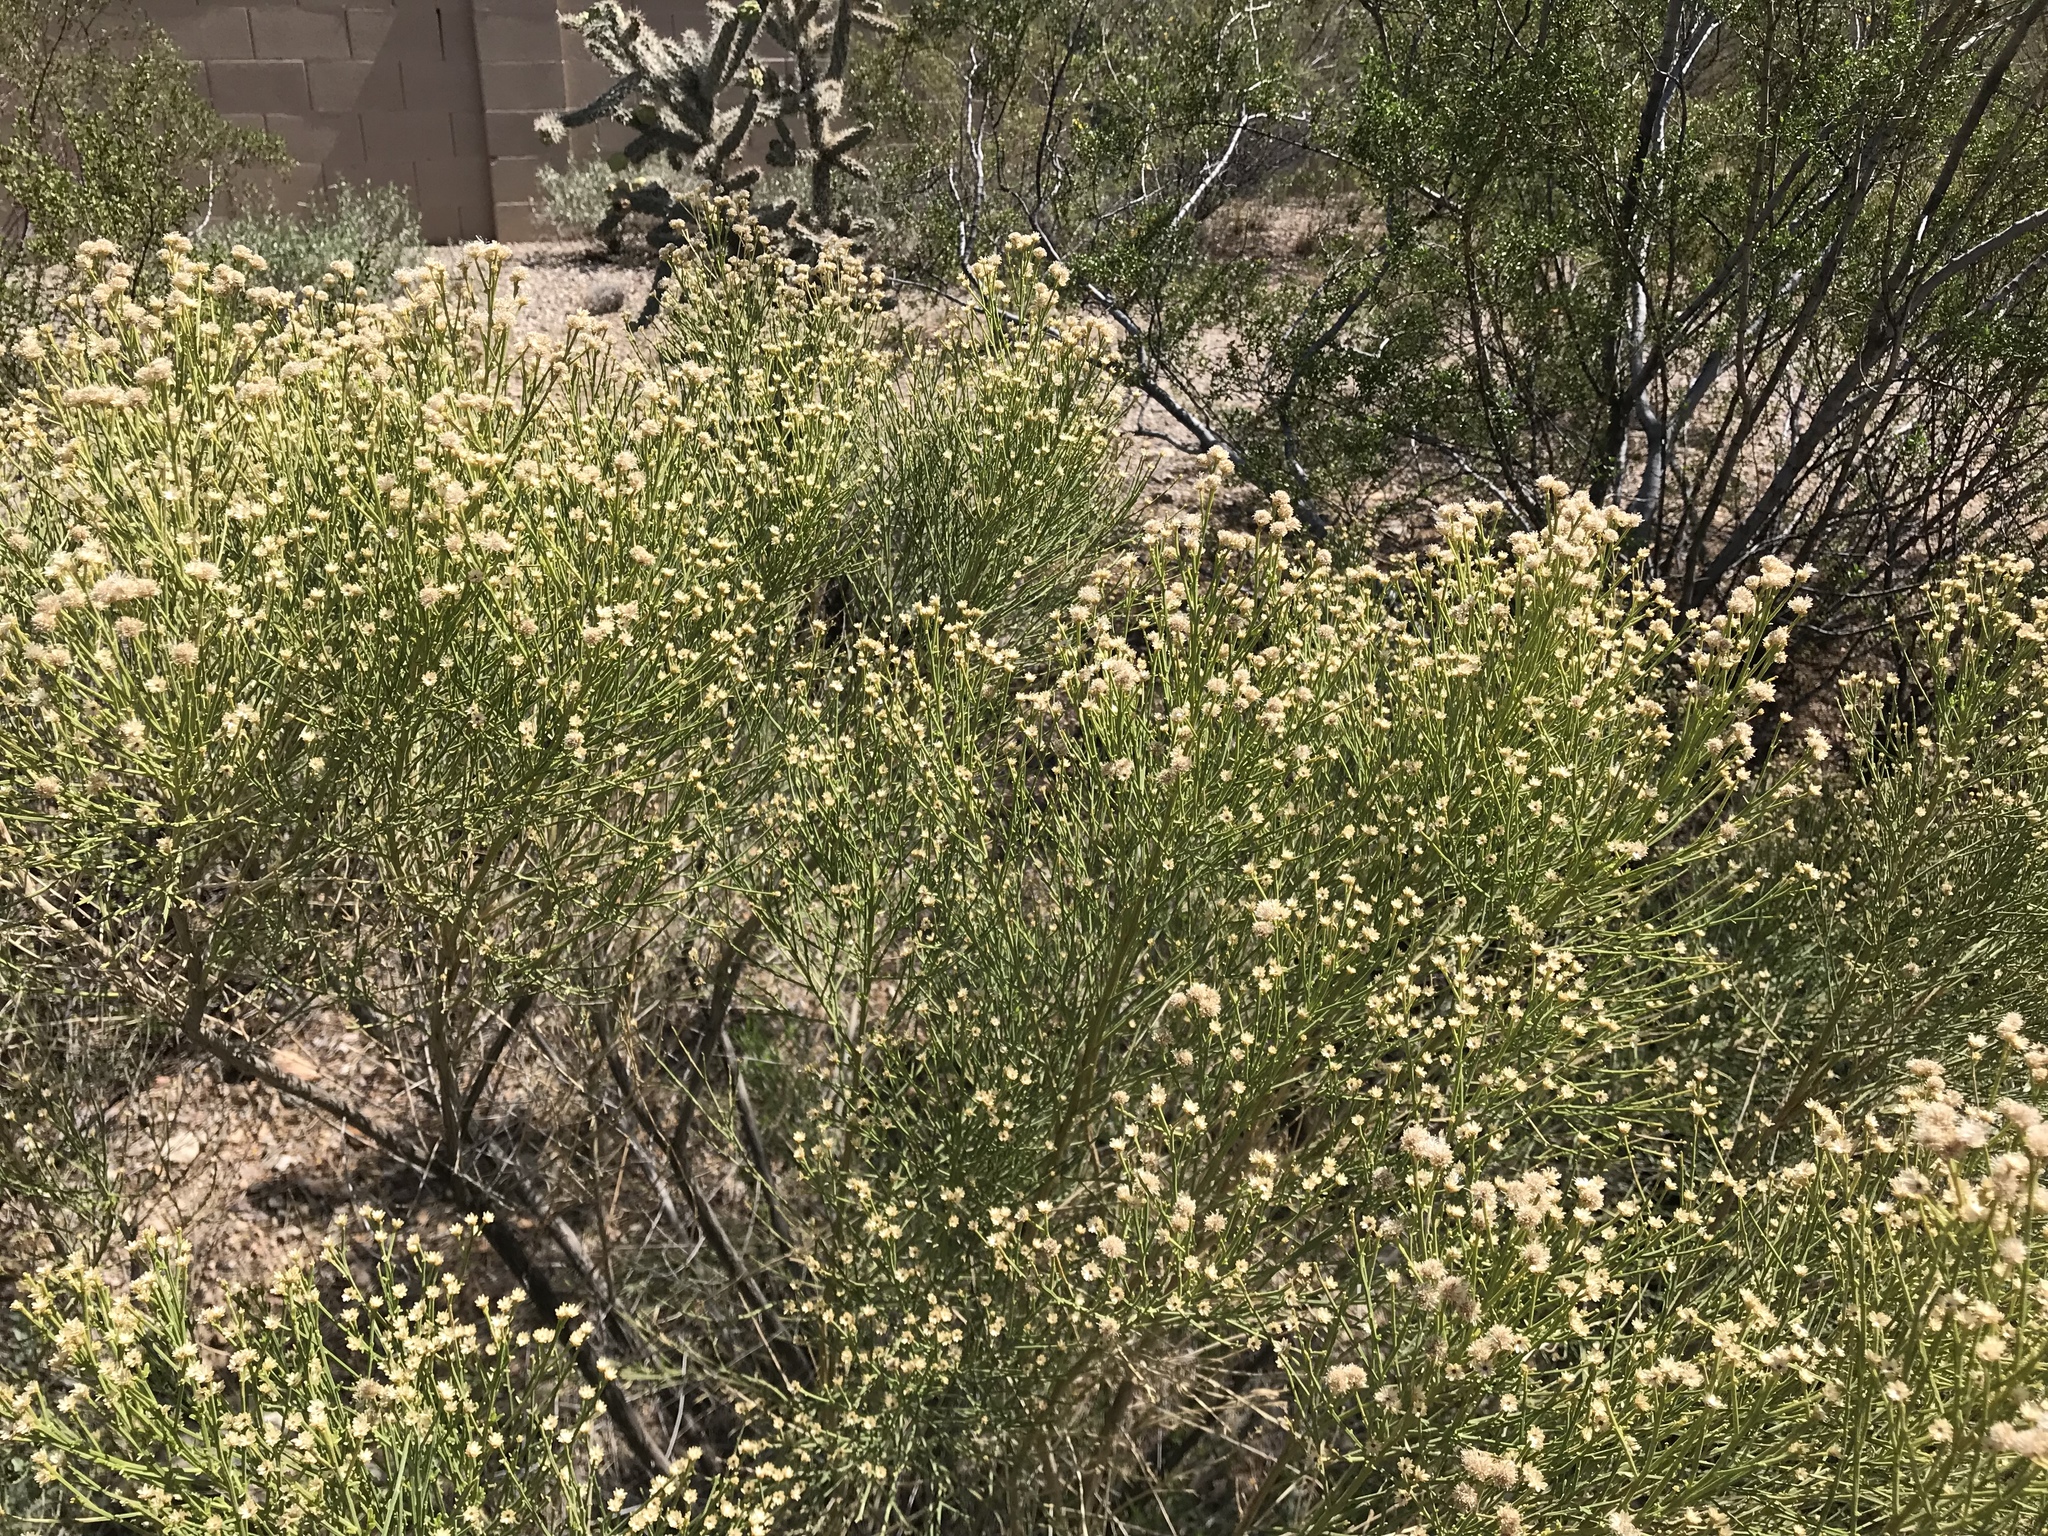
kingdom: Plantae
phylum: Tracheophyta
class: Magnoliopsida
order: Asterales
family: Asteraceae
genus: Baccharis
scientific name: Baccharis sarothroides
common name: Desert-broom
